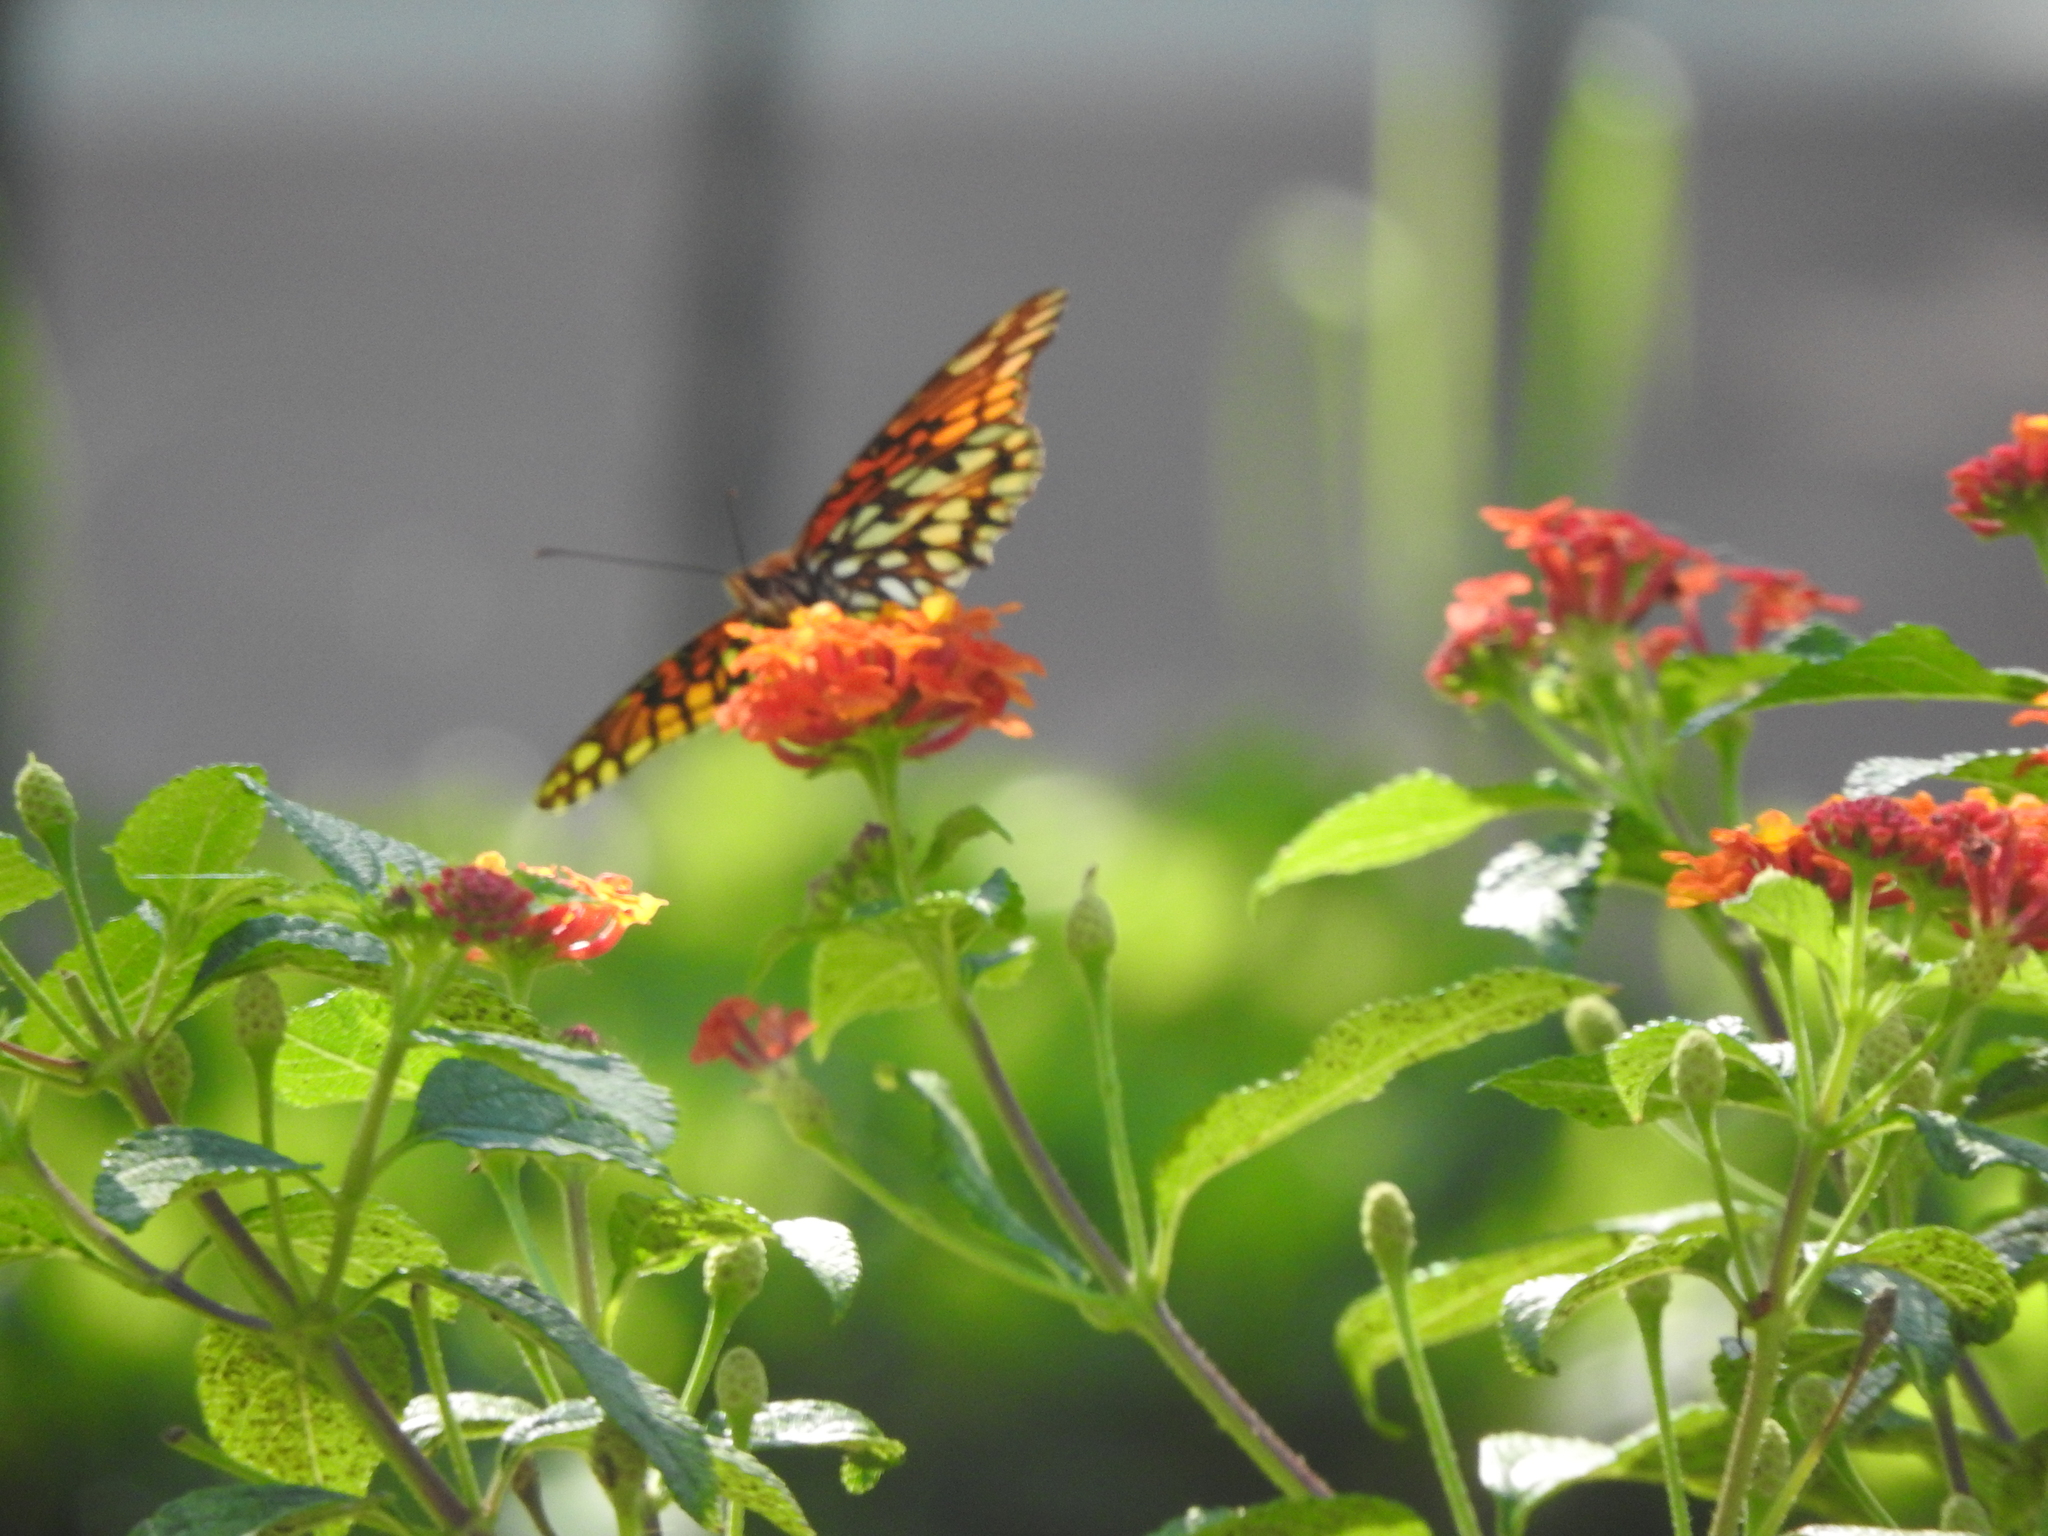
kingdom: Animalia
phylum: Arthropoda
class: Insecta
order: Lepidoptera
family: Nymphalidae
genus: Dione
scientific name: Dione moneta
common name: Mexican silverspot
